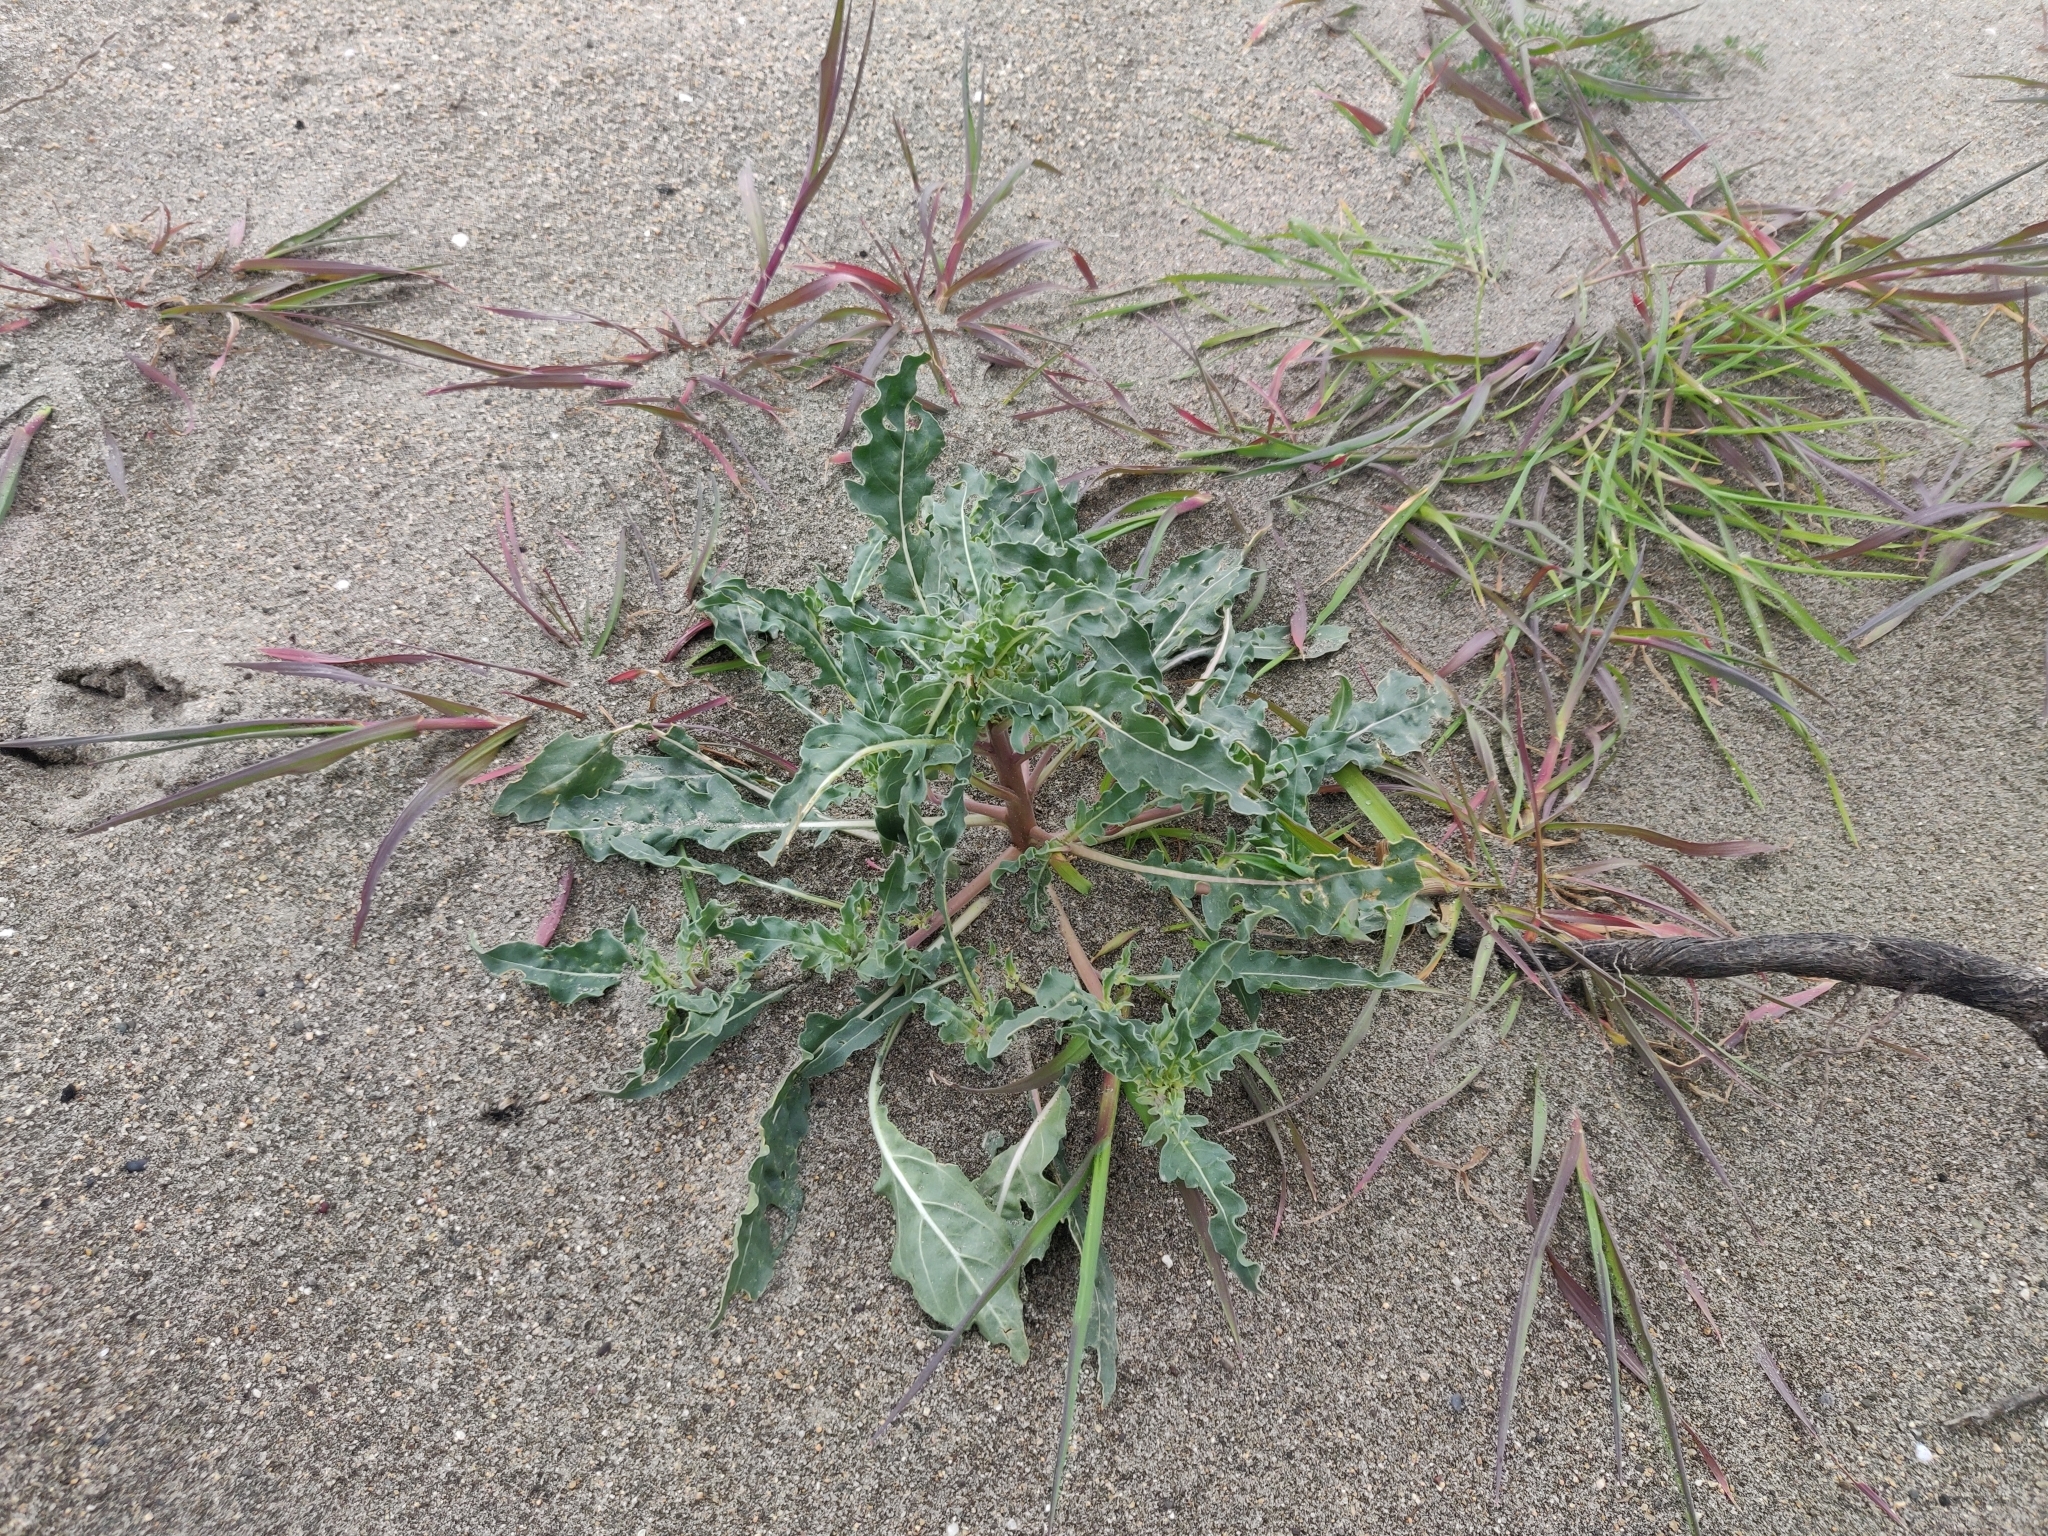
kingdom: Plantae
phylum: Tracheophyta
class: Magnoliopsida
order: Myrtales
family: Onagraceae
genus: Oenothera
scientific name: Oenothera deltoides
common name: Basket evening-primrose
